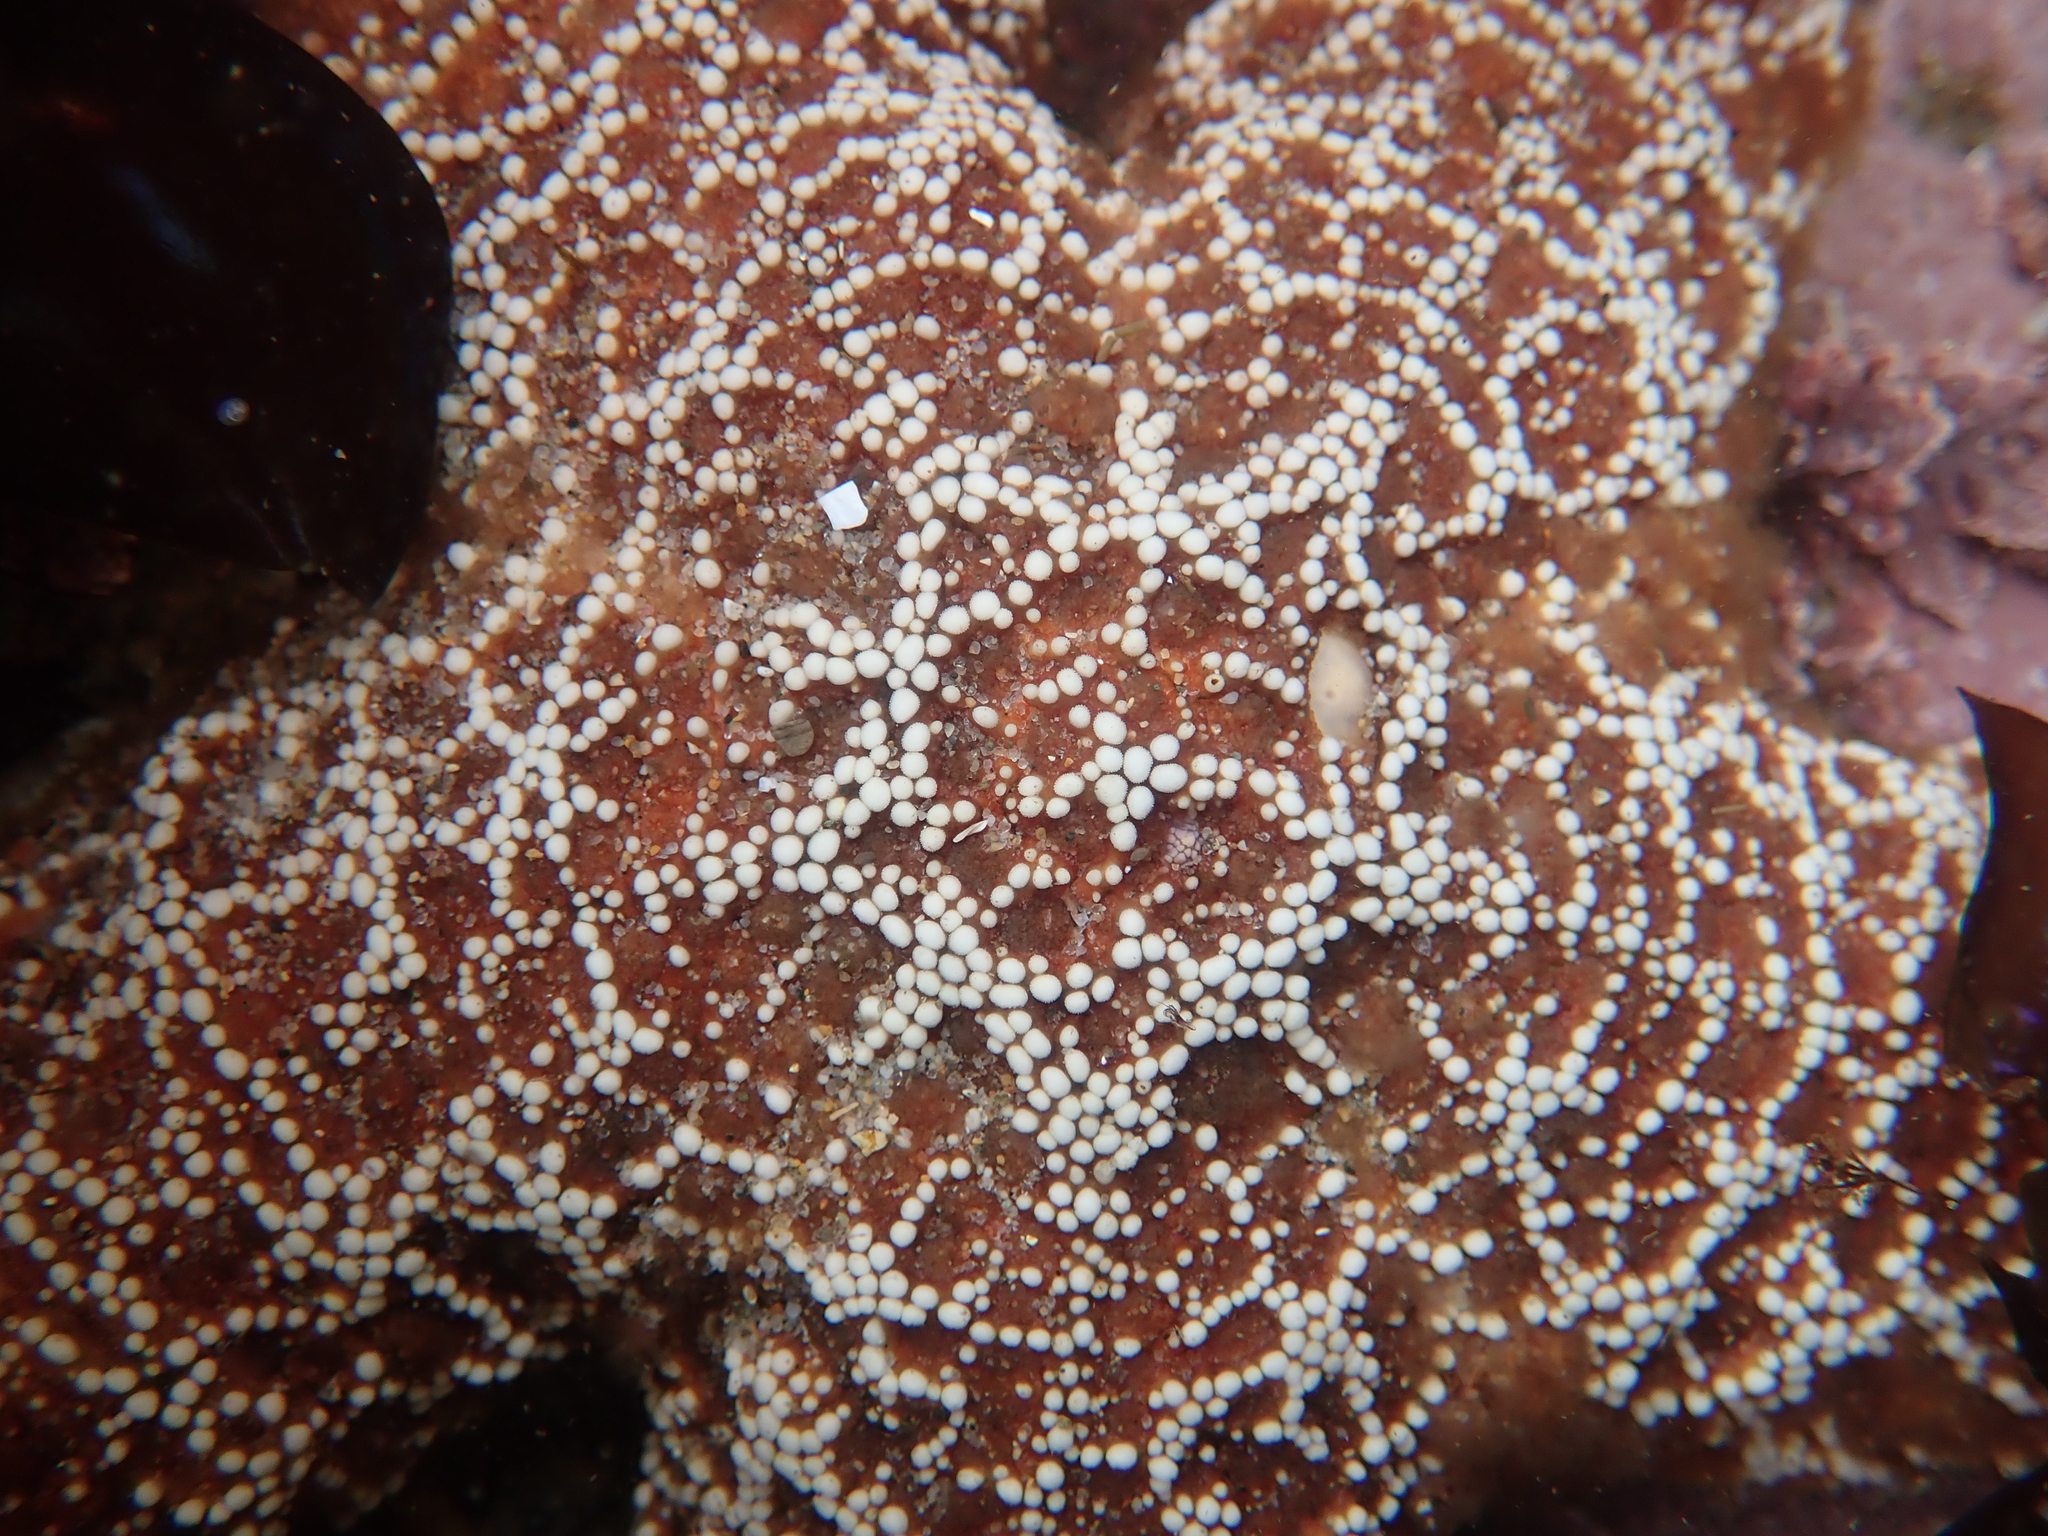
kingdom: Animalia
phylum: Echinodermata
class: Asteroidea
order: Forcipulatida
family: Asteriidae
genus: Pisaster
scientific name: Pisaster ochraceus
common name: Ochre stars
